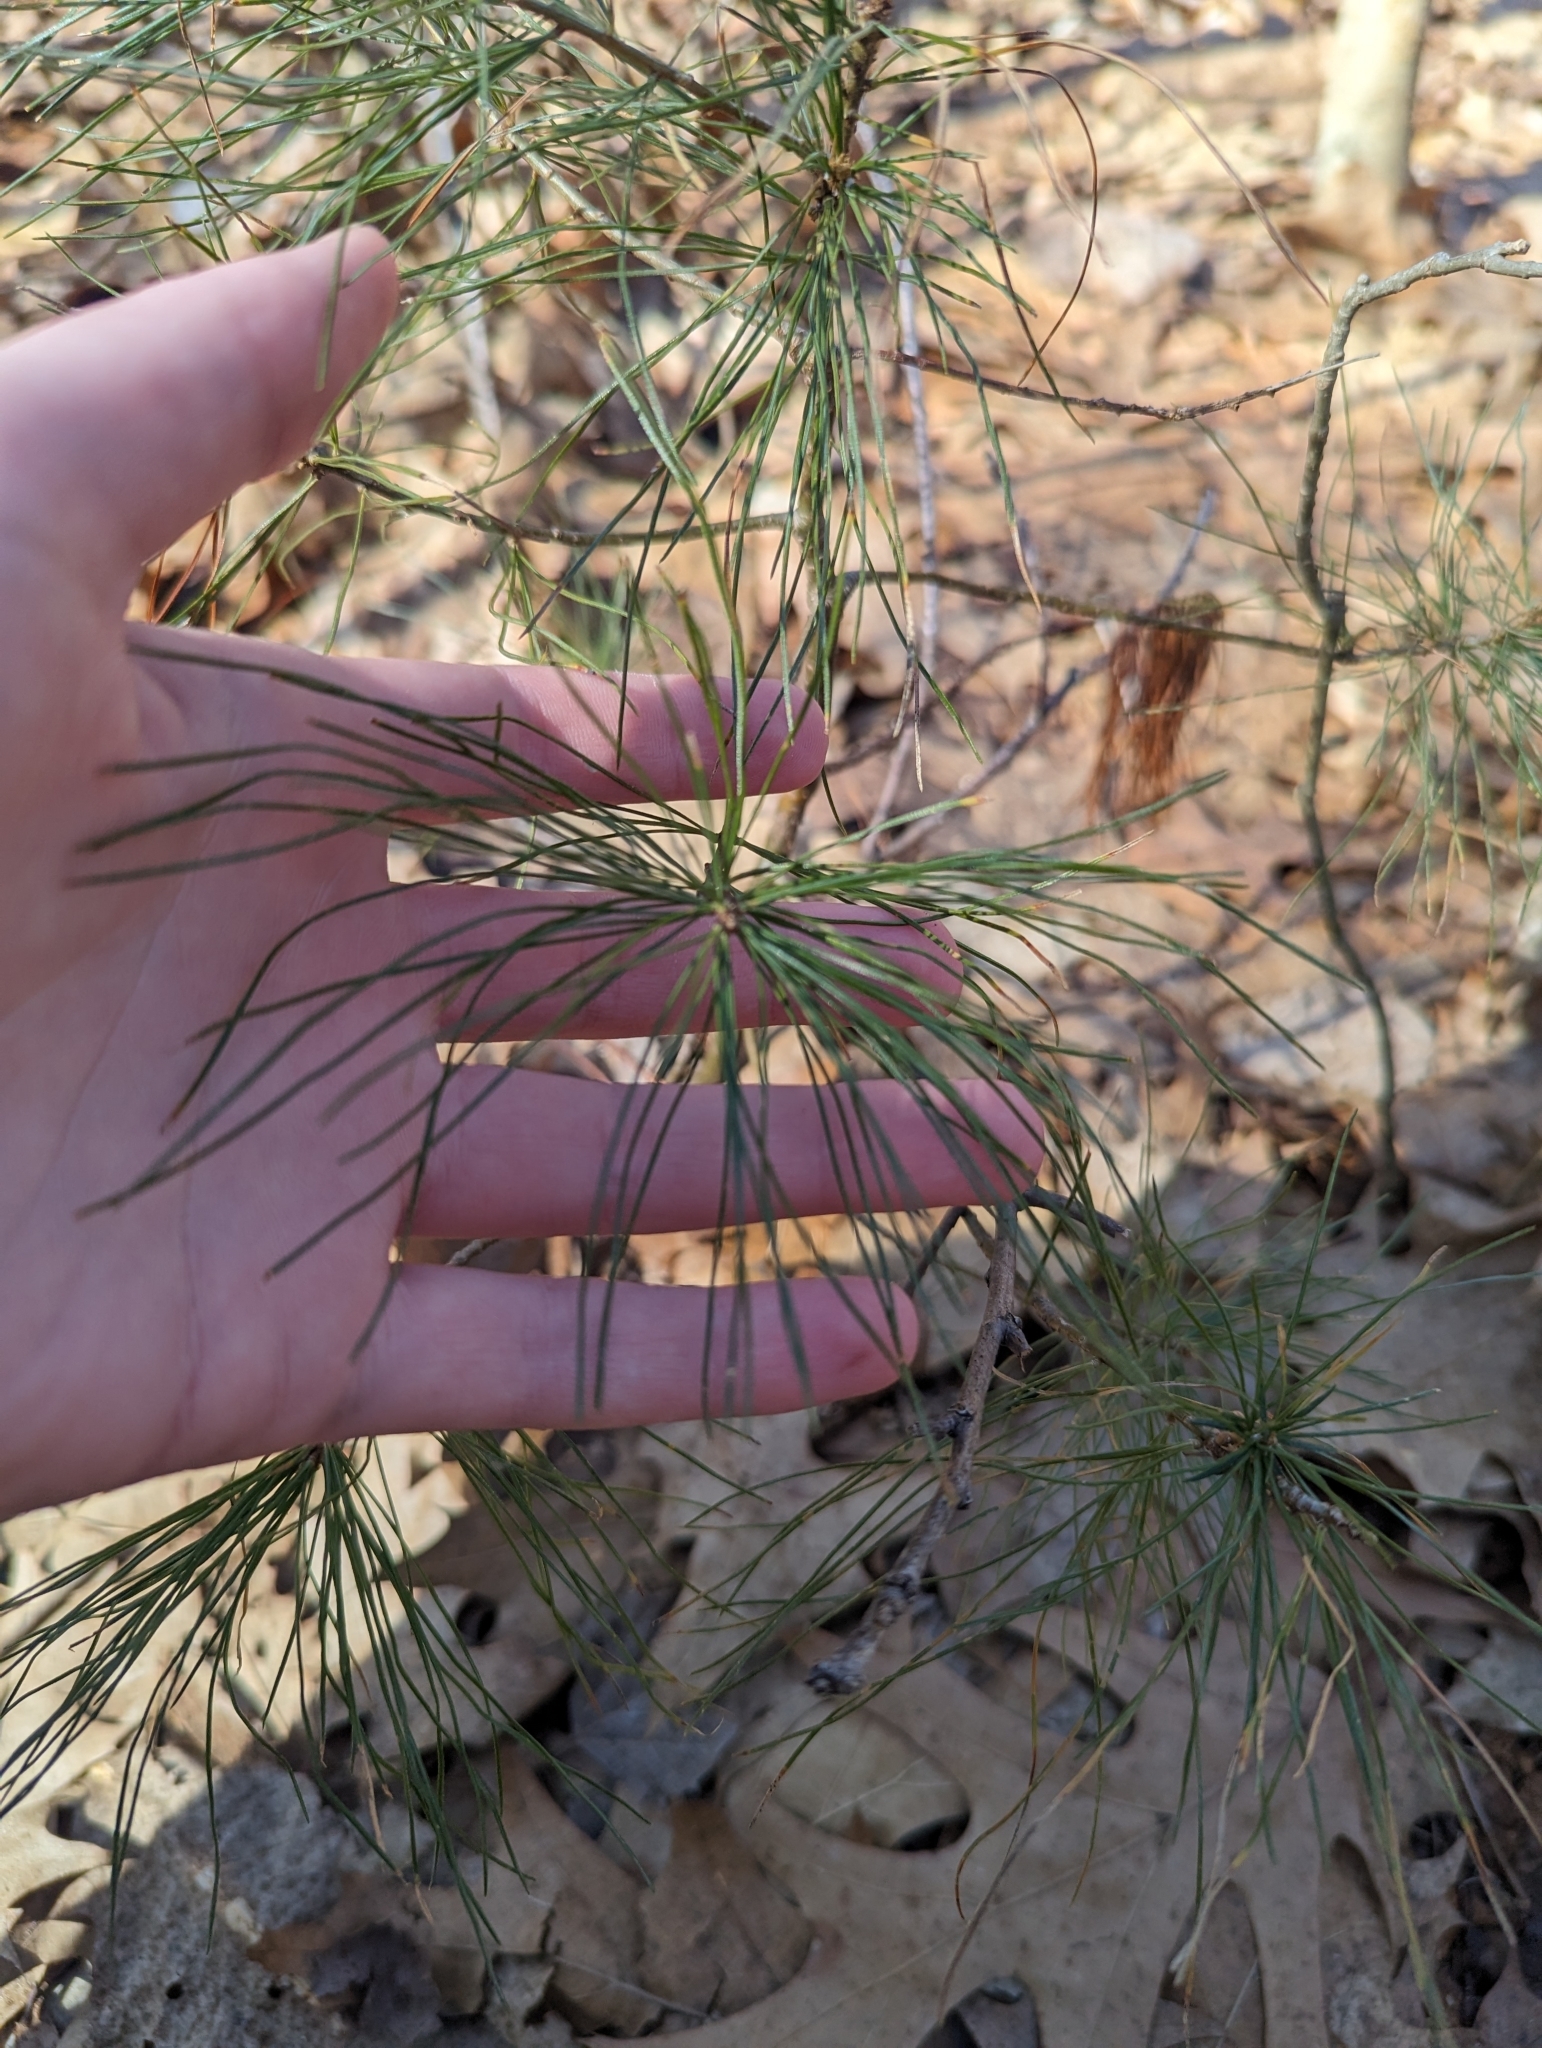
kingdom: Plantae
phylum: Tracheophyta
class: Pinopsida
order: Pinales
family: Pinaceae
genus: Pinus
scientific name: Pinus strobus
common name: Weymouth pine
